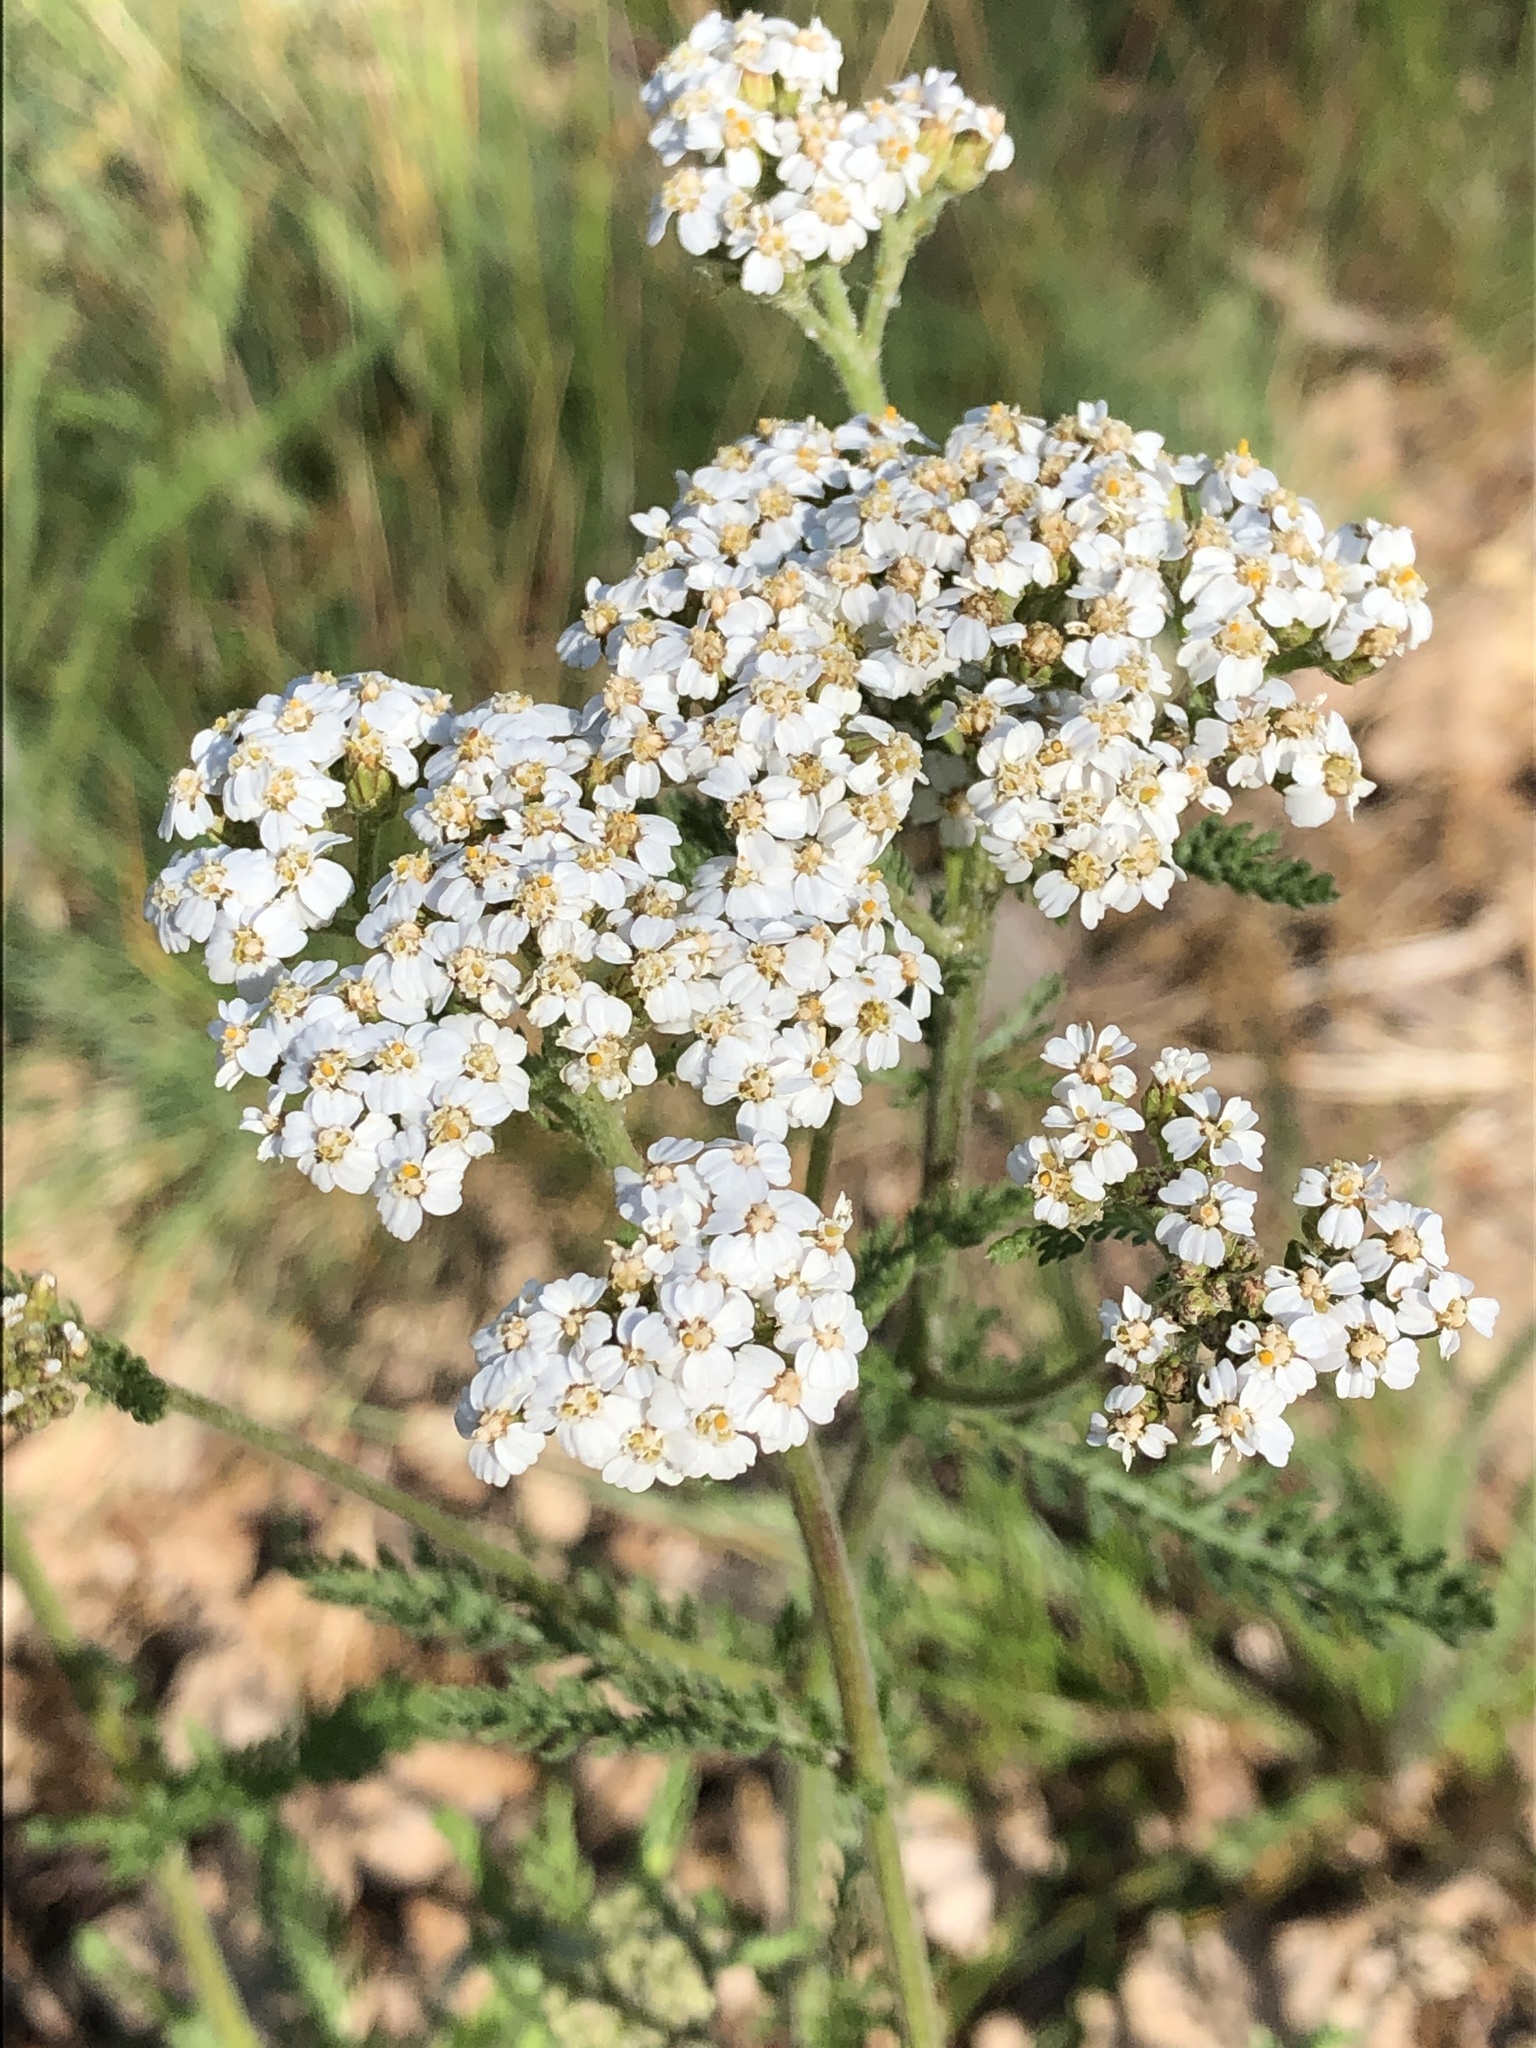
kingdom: Plantae
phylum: Tracheophyta
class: Magnoliopsida
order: Asterales
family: Asteraceae
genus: Achillea
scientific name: Achillea millefolium
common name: Yarrow
